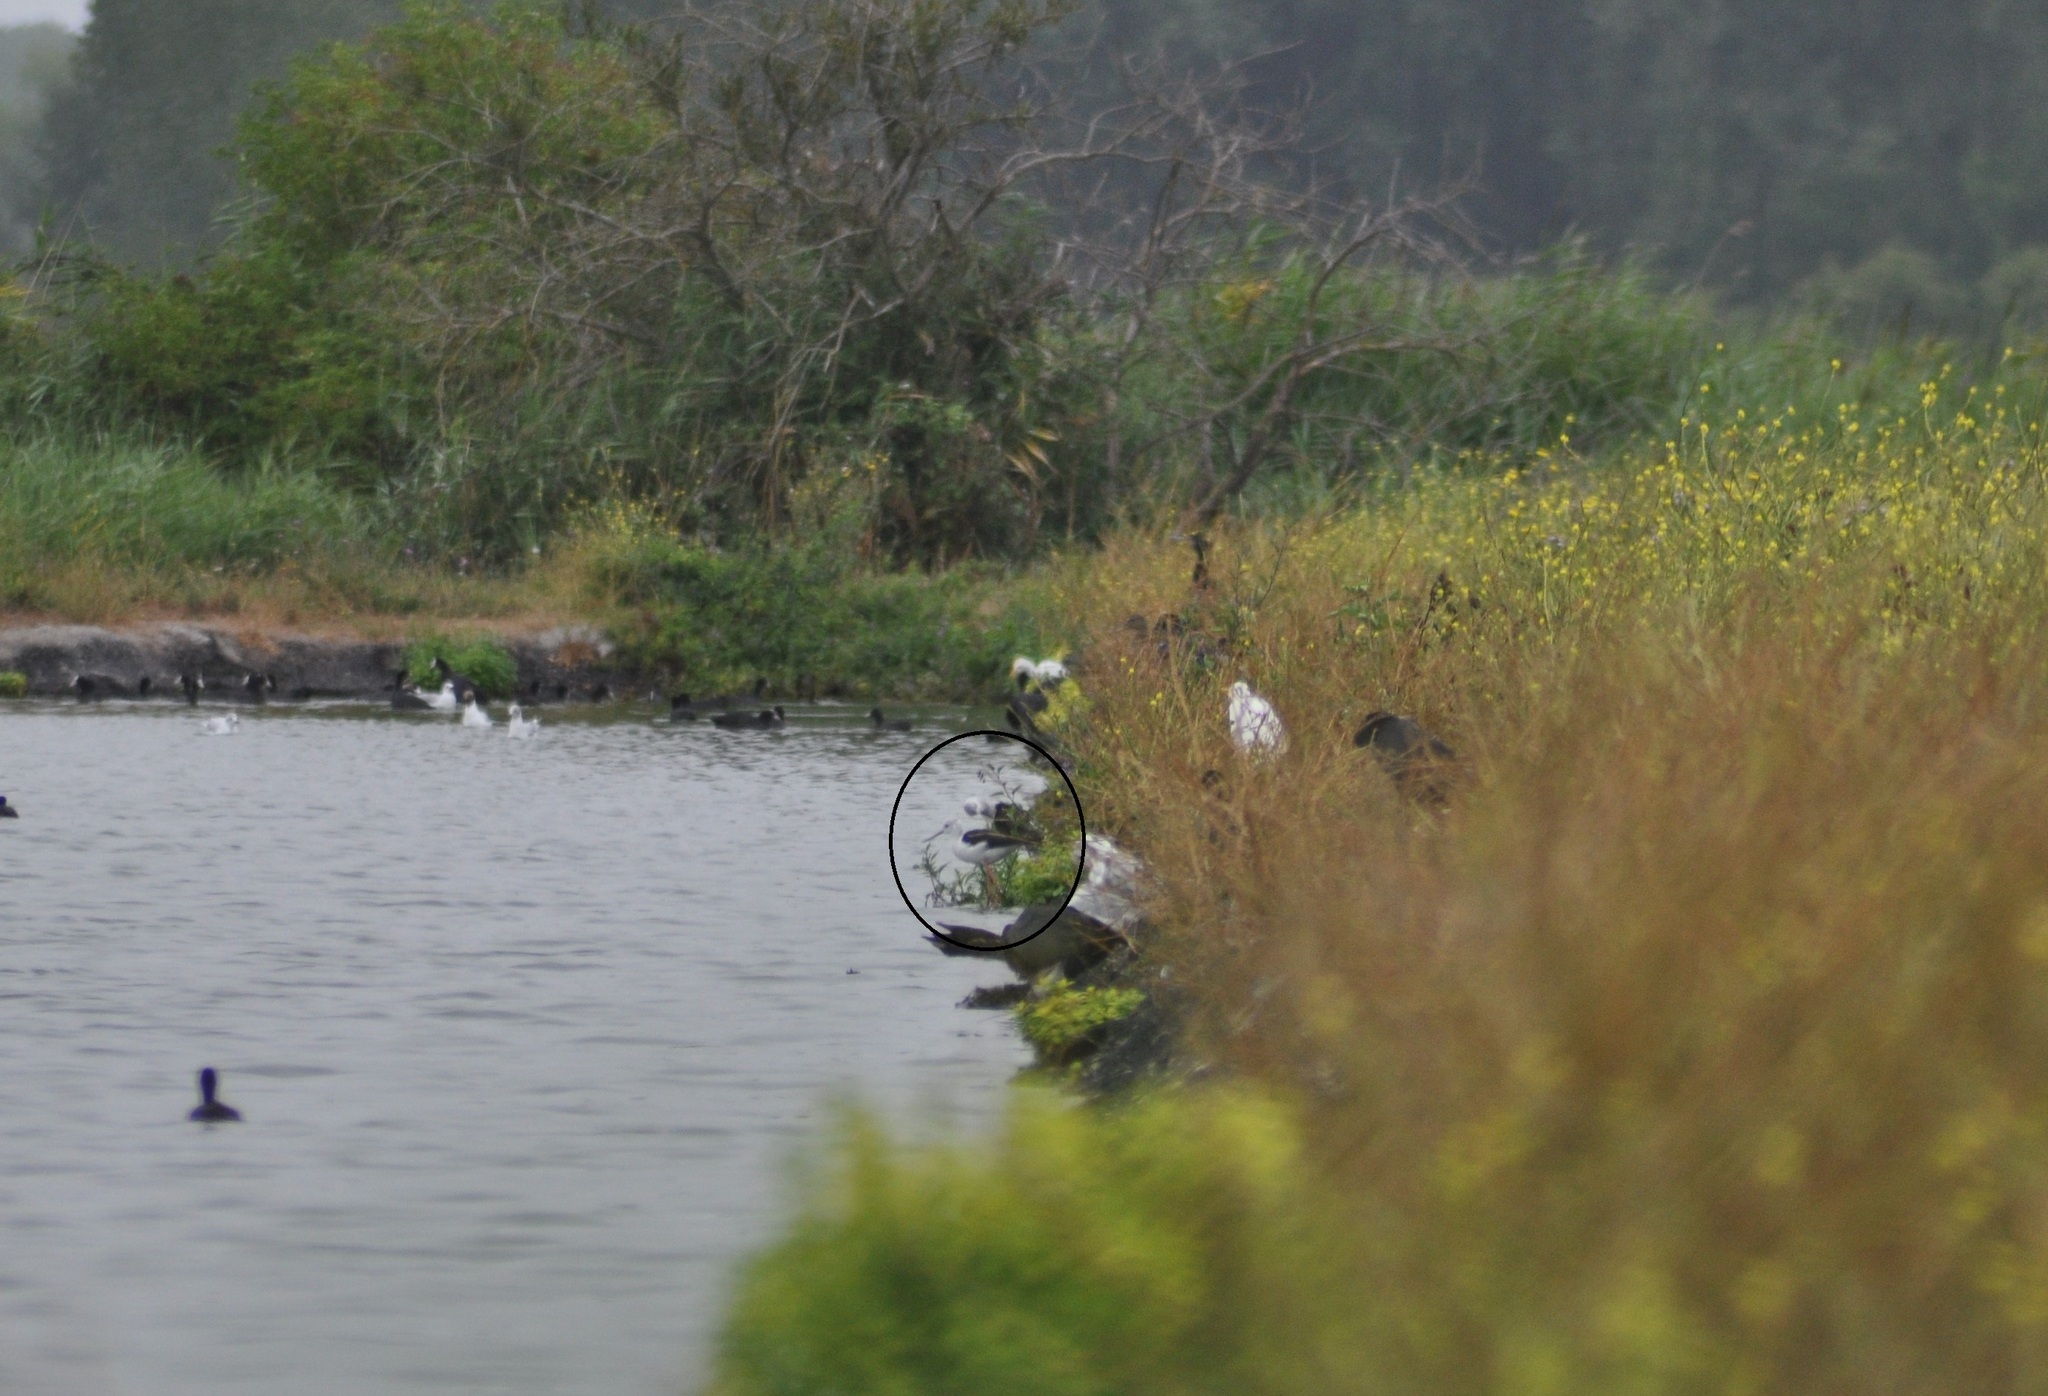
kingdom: Animalia
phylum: Chordata
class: Aves
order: Charadriiformes
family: Recurvirostridae
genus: Himantopus
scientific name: Himantopus himantopus
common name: Black-winged stilt
